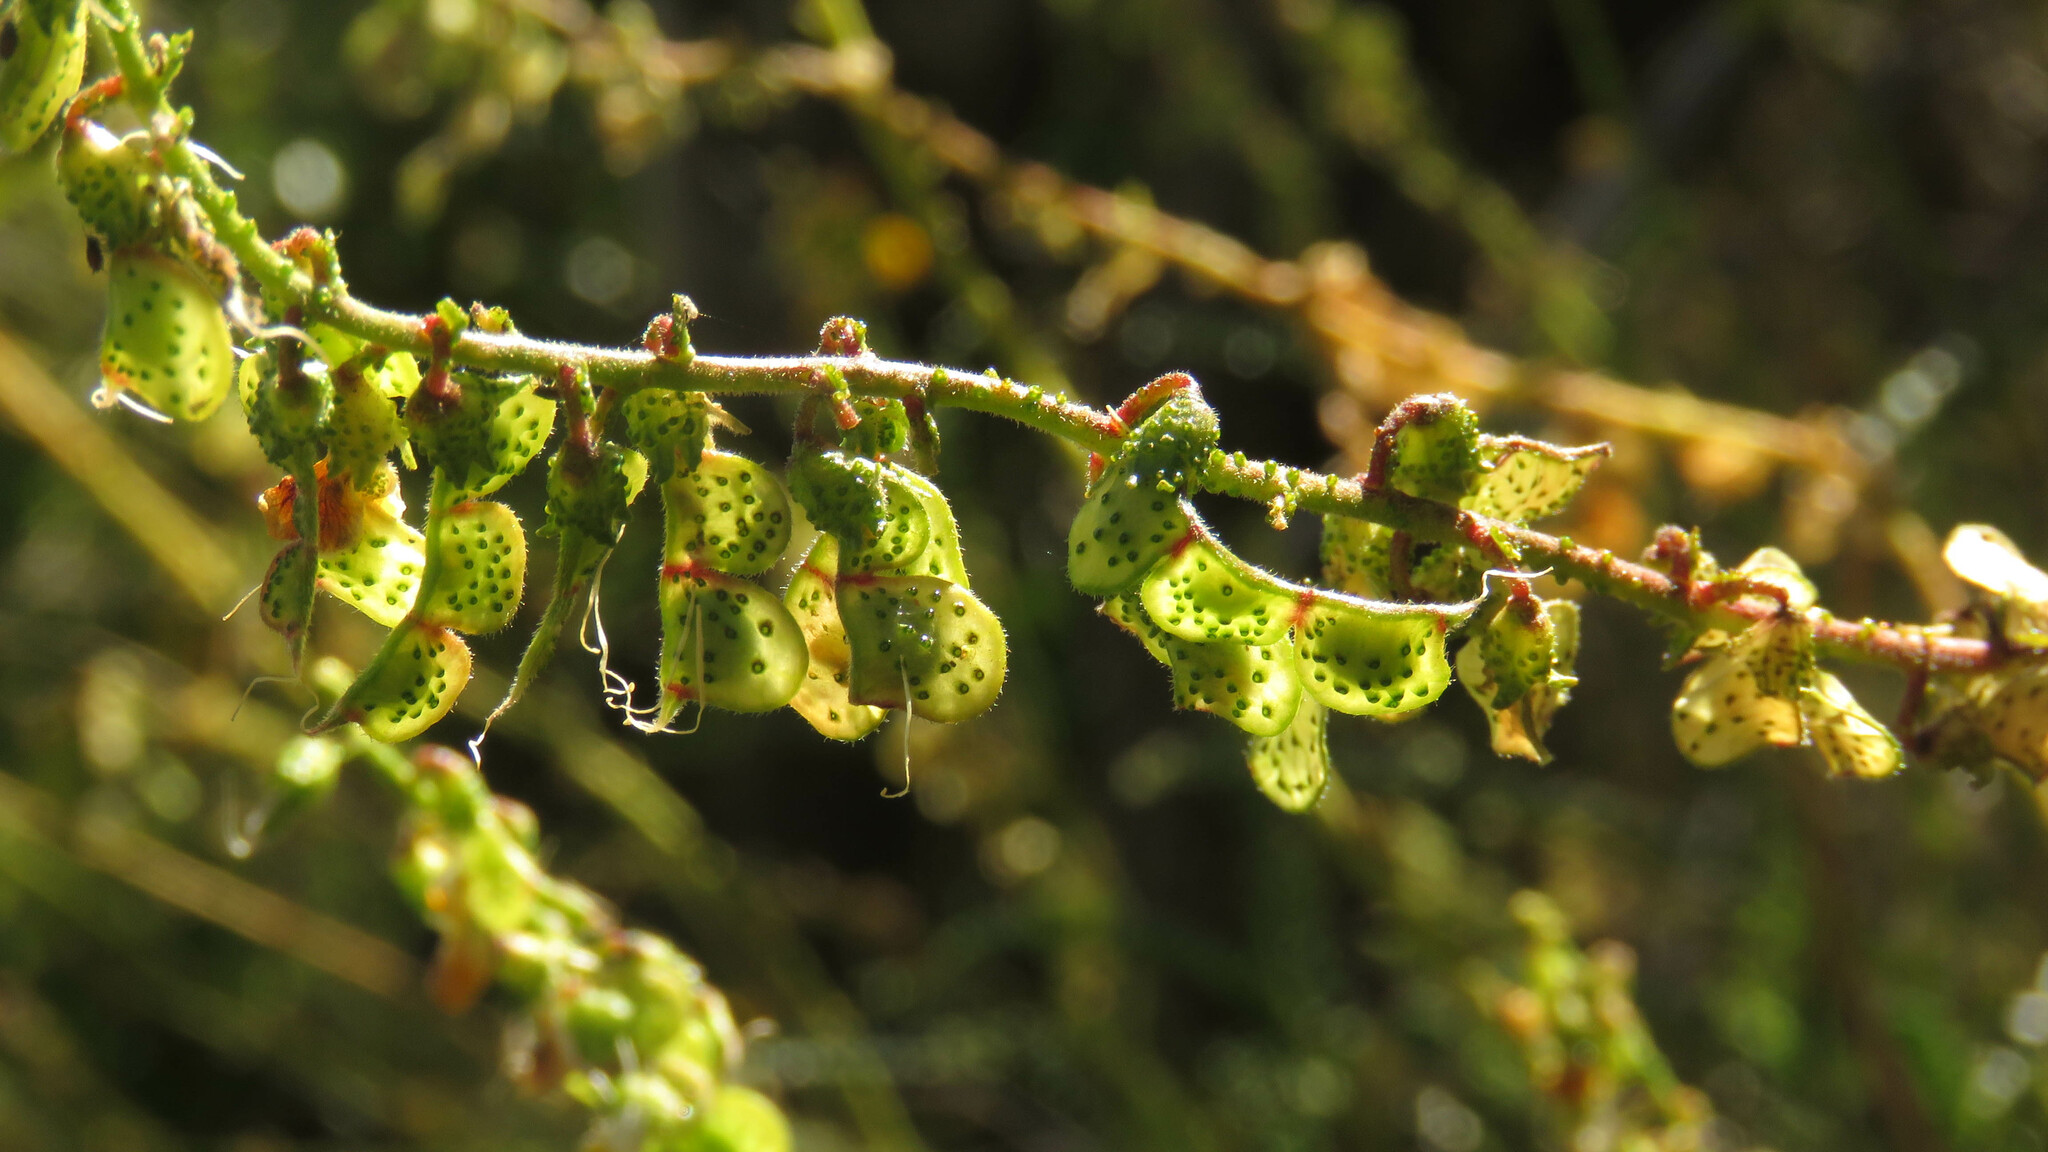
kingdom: Plantae
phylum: Tracheophyta
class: Magnoliopsida
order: Fabales
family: Fabaceae
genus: Adesmia
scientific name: Adesmia boronioides
